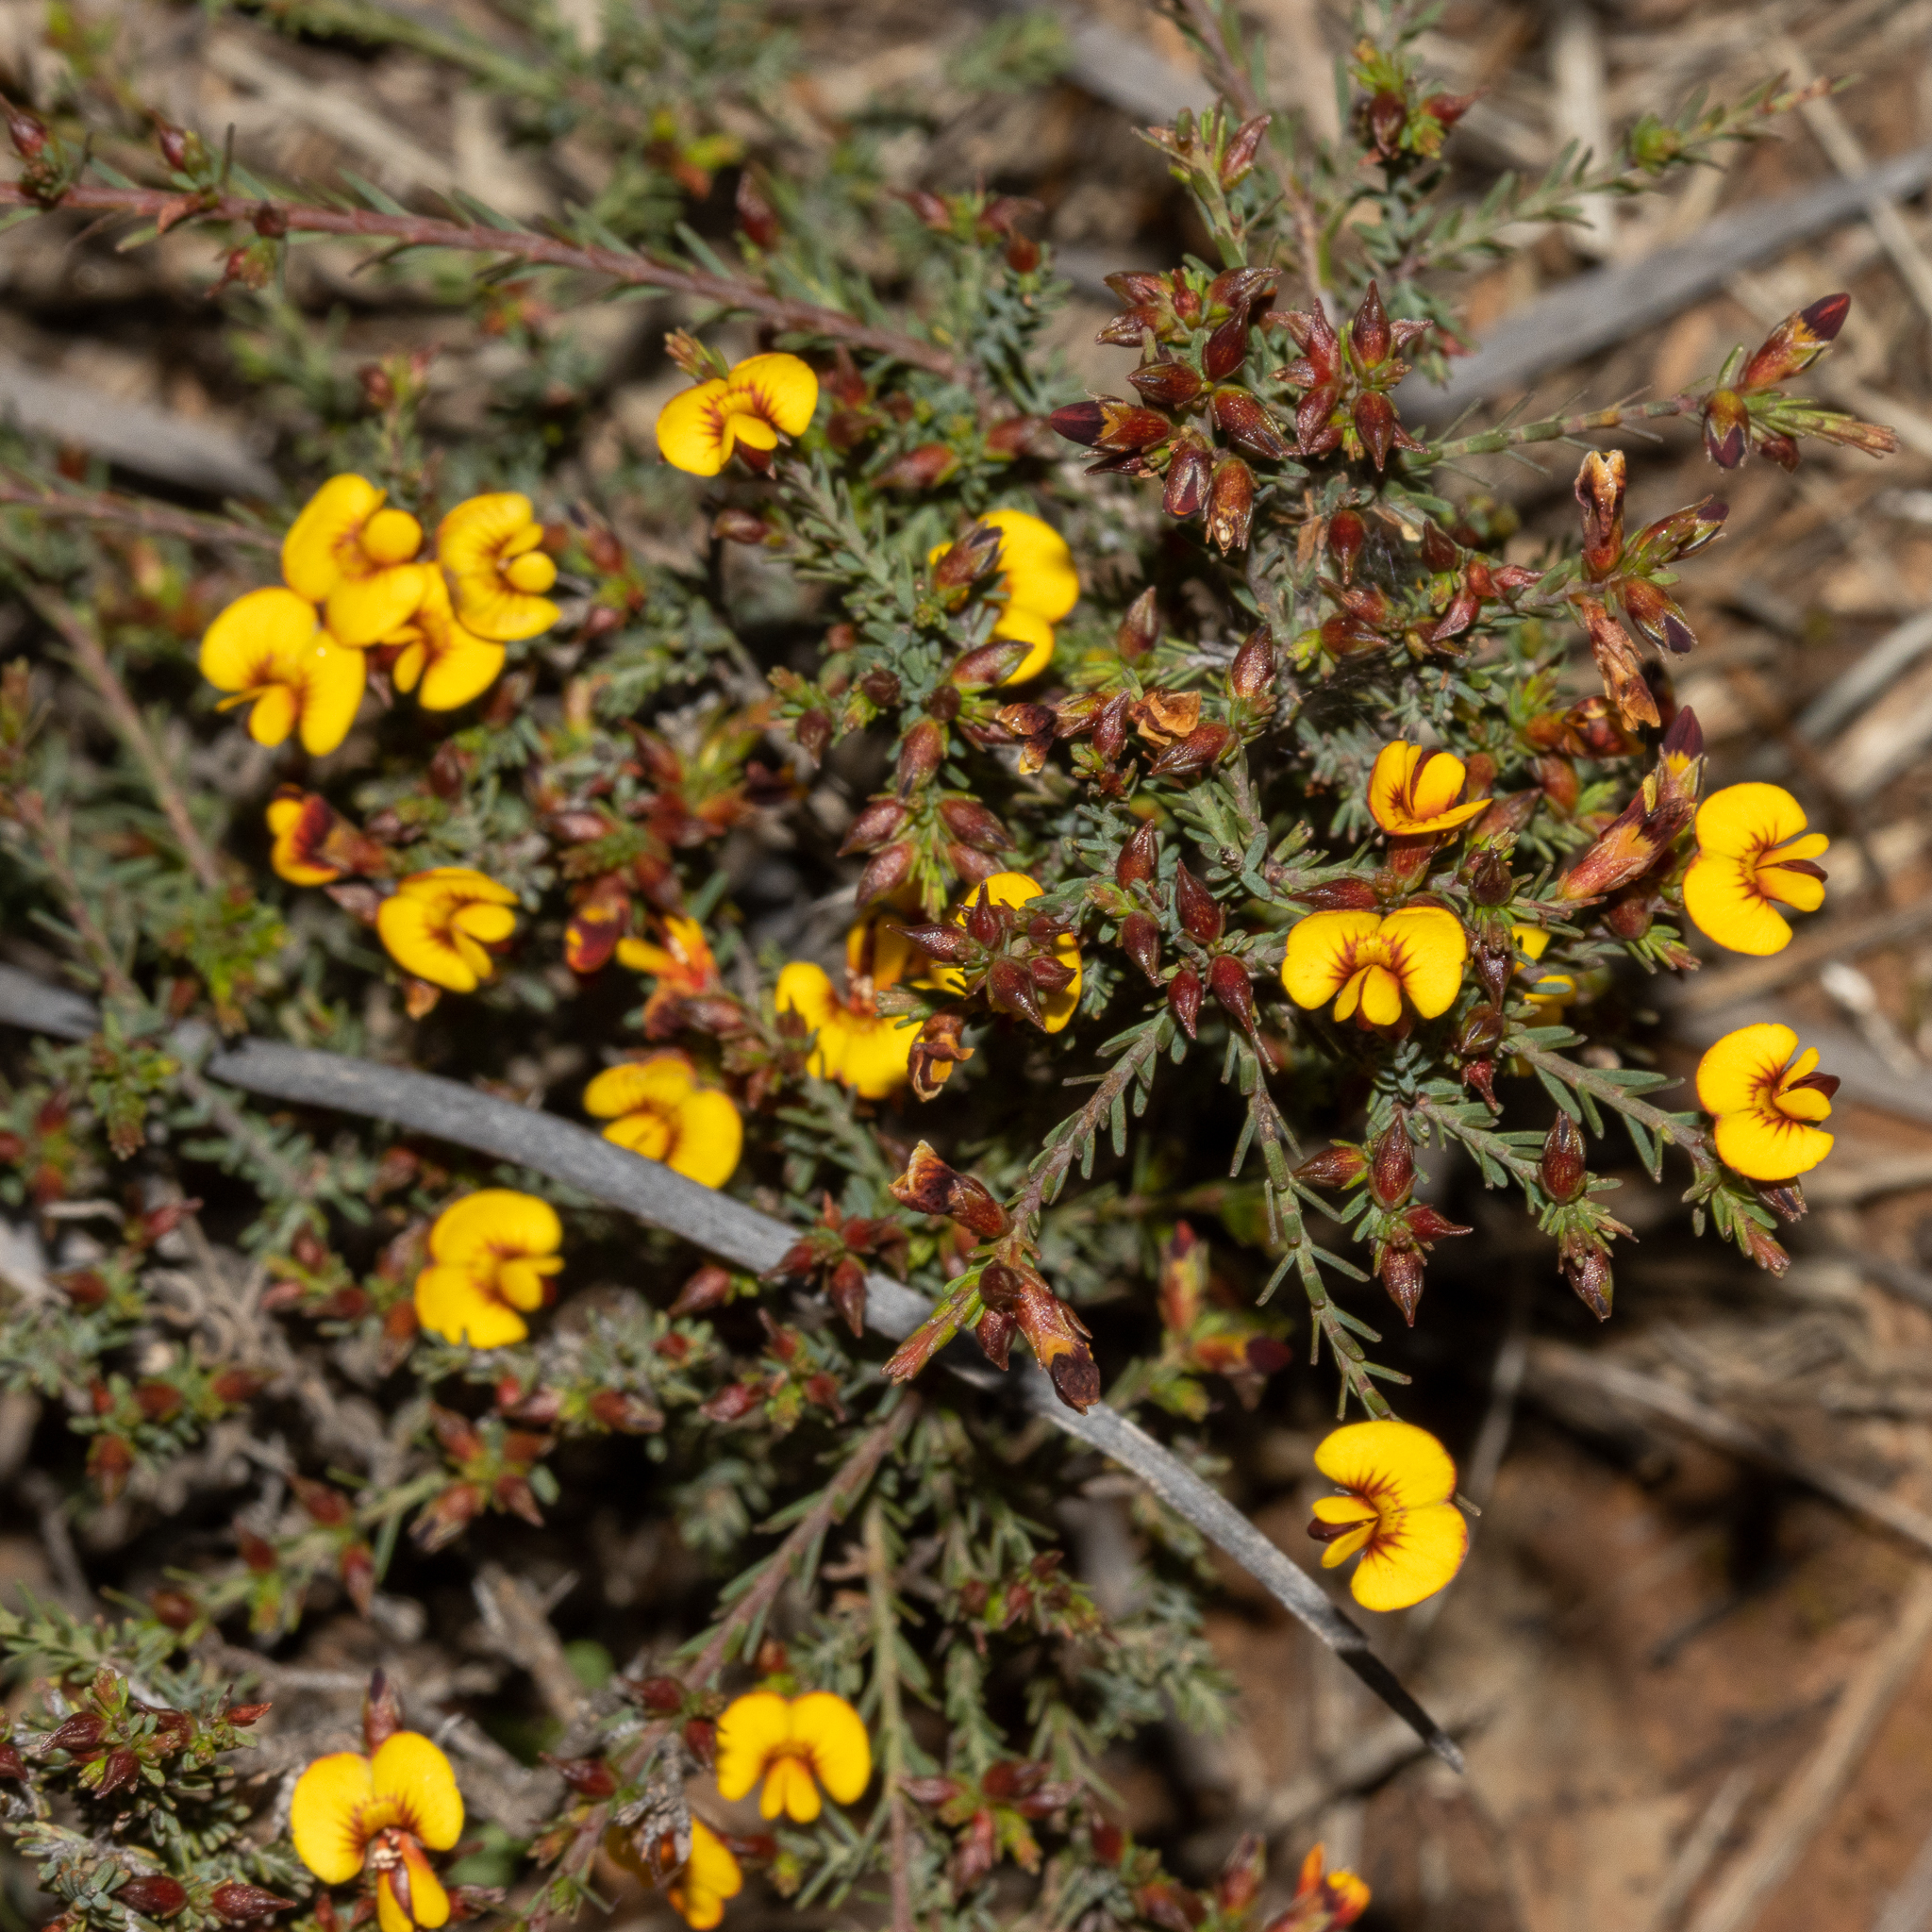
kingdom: Plantae
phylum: Tracheophyta
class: Magnoliopsida
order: Fabales
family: Fabaceae
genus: Eutaxia
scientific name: Eutaxia microphylla
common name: Mallee bush-pea
